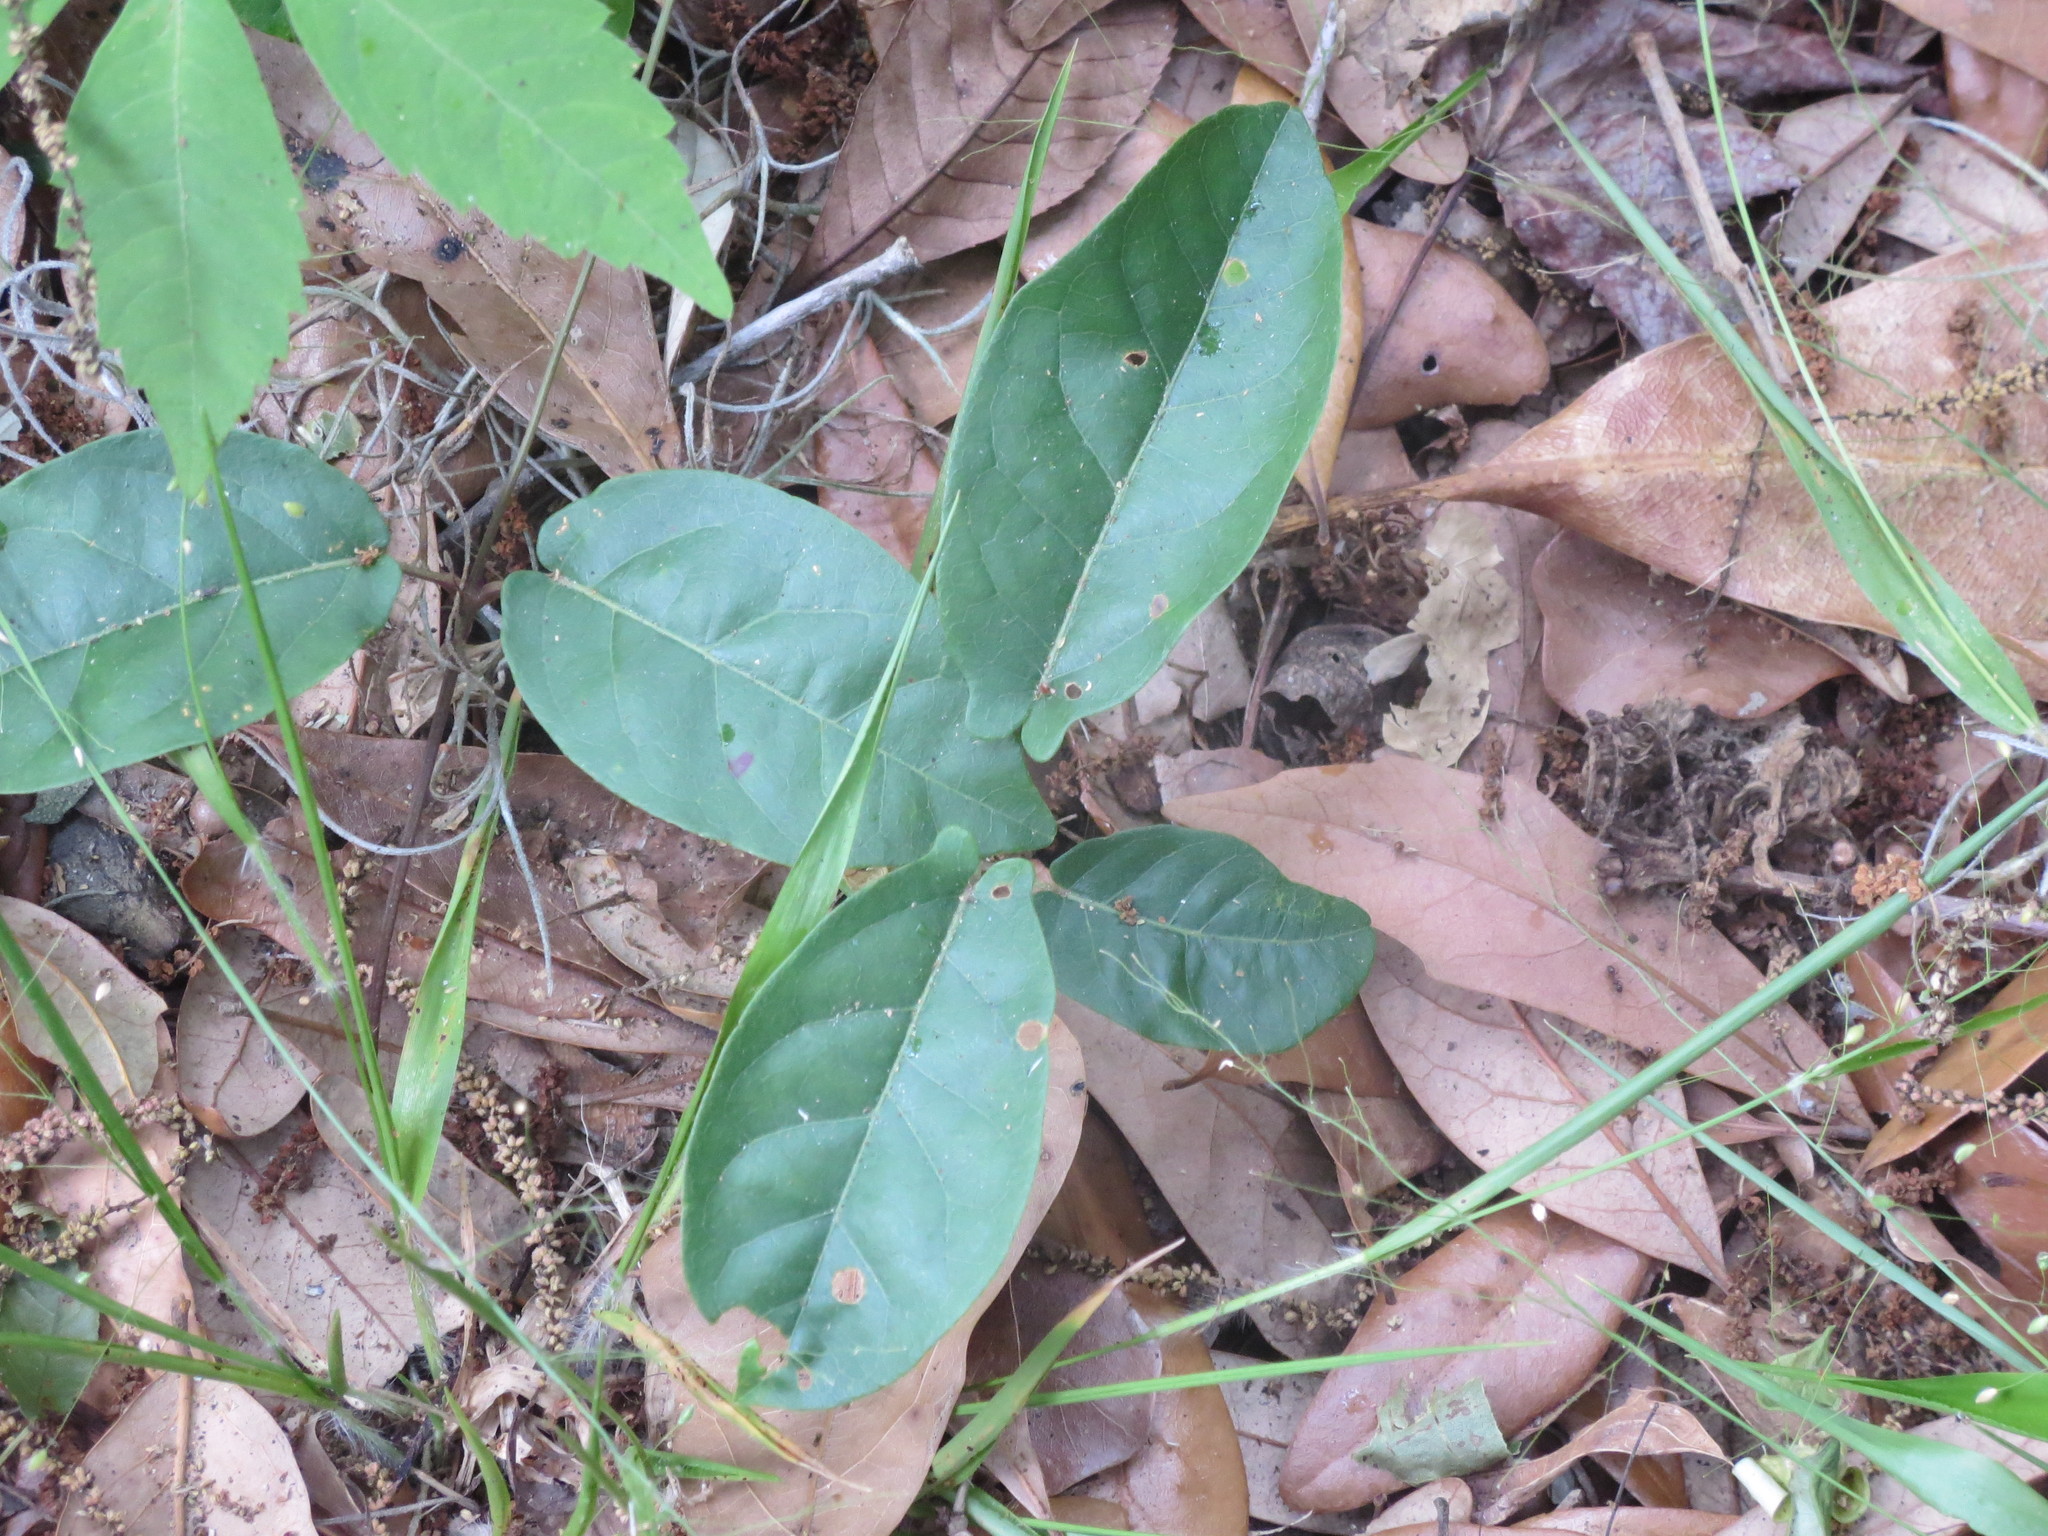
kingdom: Plantae
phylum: Tracheophyta
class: Magnoliopsida
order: Lamiales
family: Bignoniaceae
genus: Bignonia
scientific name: Bignonia capreolata
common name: Crossvine
